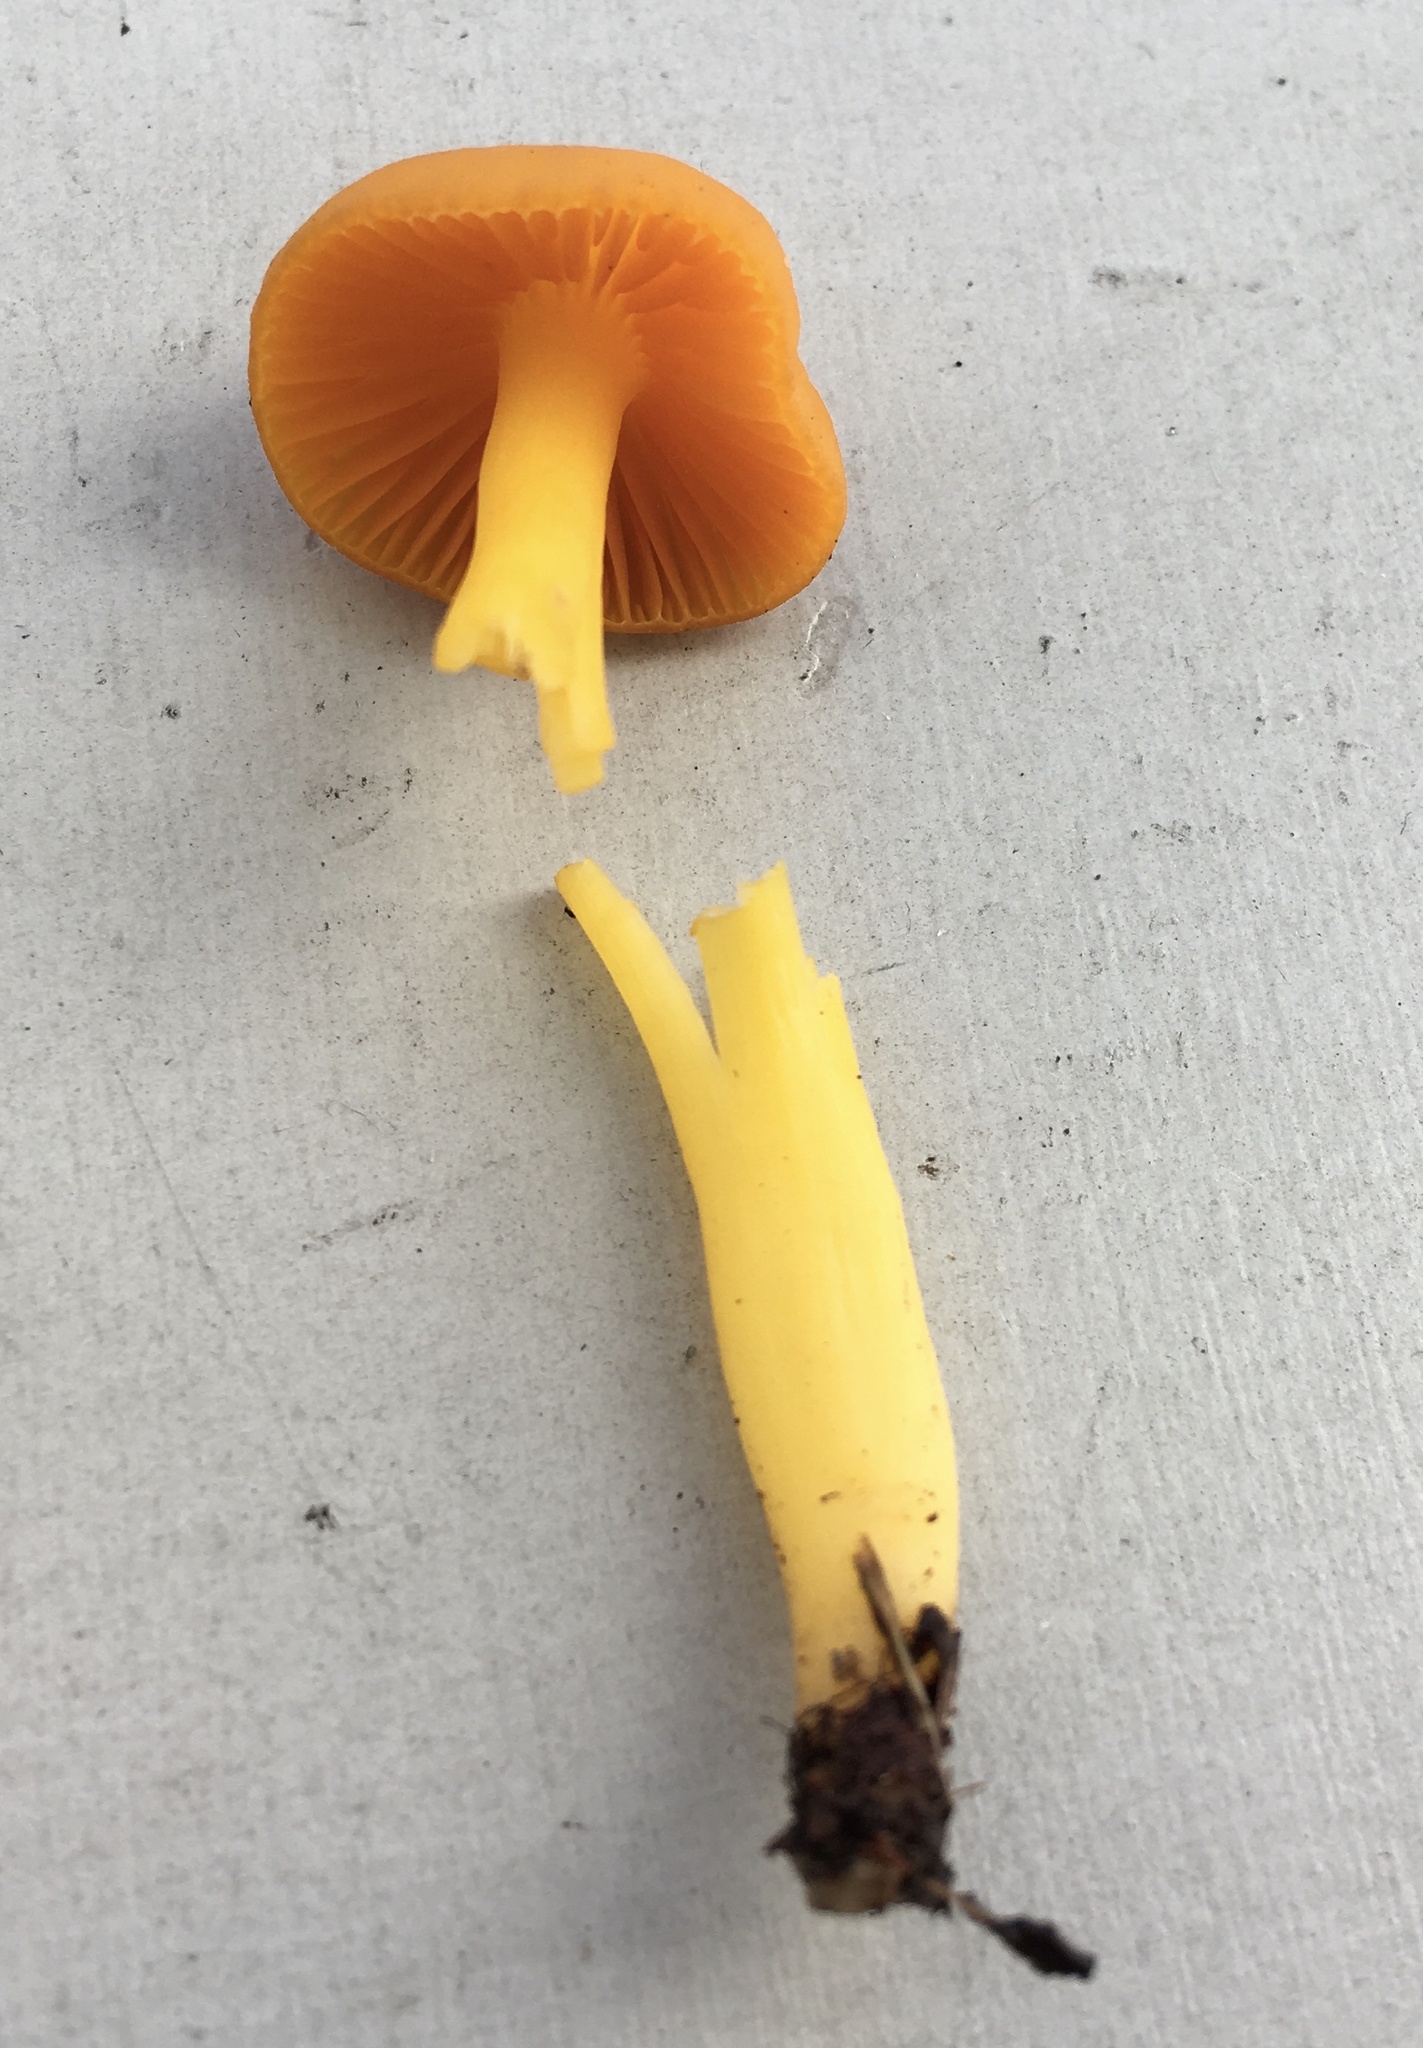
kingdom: Fungi
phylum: Basidiomycota
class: Agaricomycetes
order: Agaricales
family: Hygrophoraceae
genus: Humidicutis
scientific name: Humidicutis marginata
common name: Orange gilled waxcap
